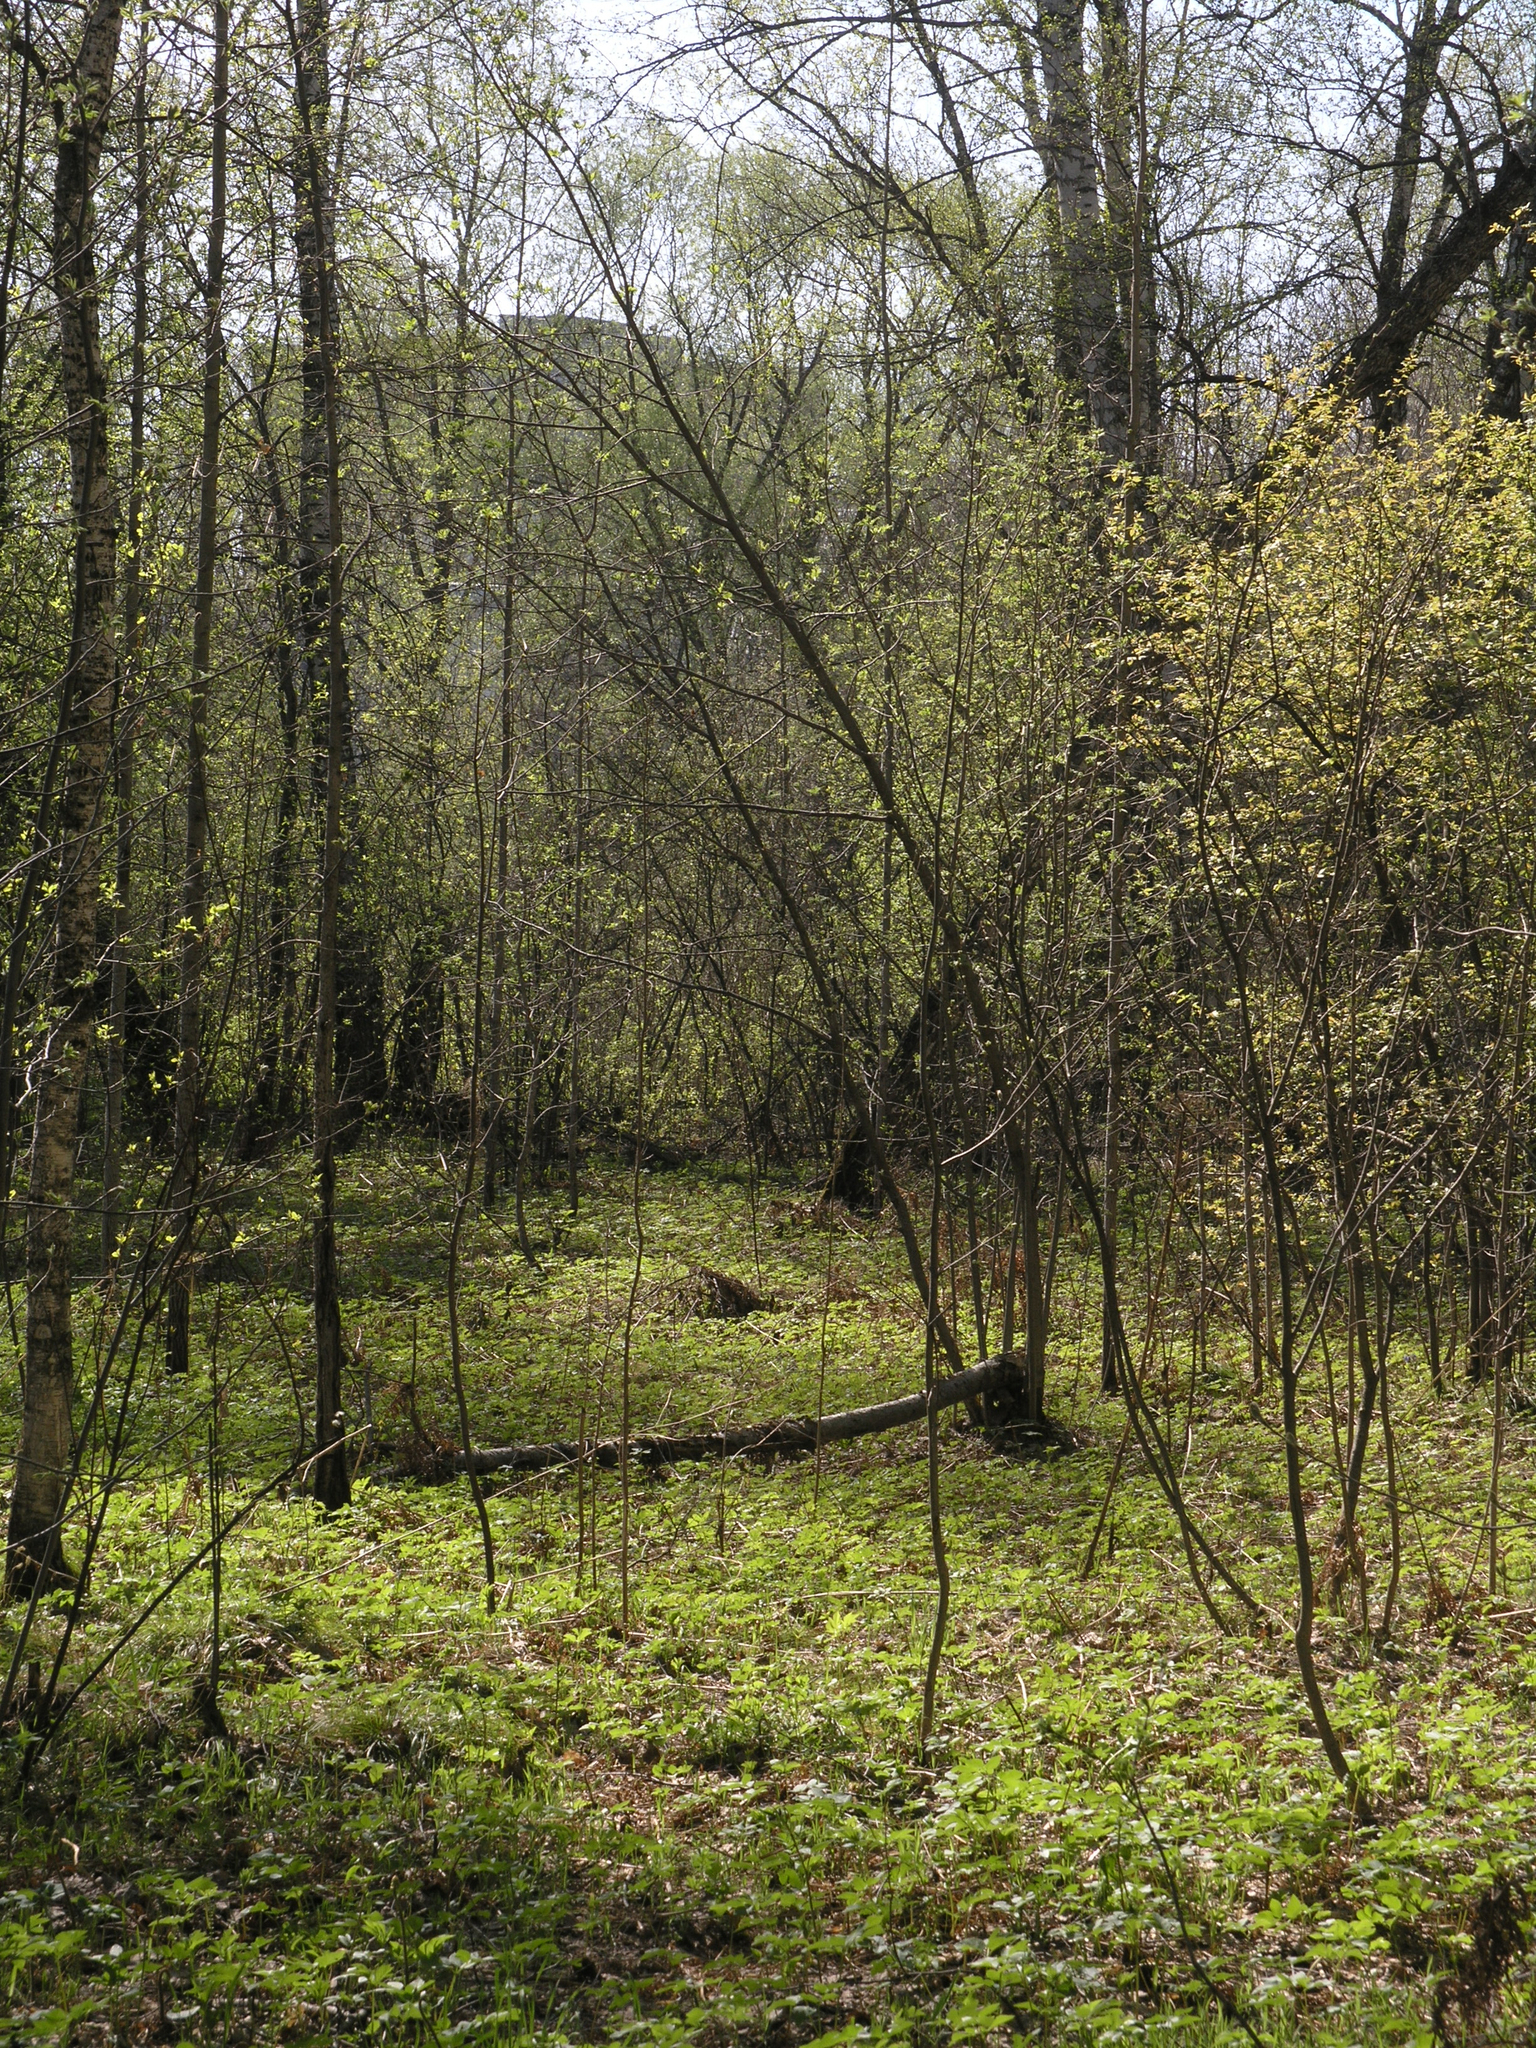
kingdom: Plantae
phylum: Tracheophyta
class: Magnoliopsida
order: Apiales
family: Apiaceae
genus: Aegopodium
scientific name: Aegopodium podagraria
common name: Ground-elder
